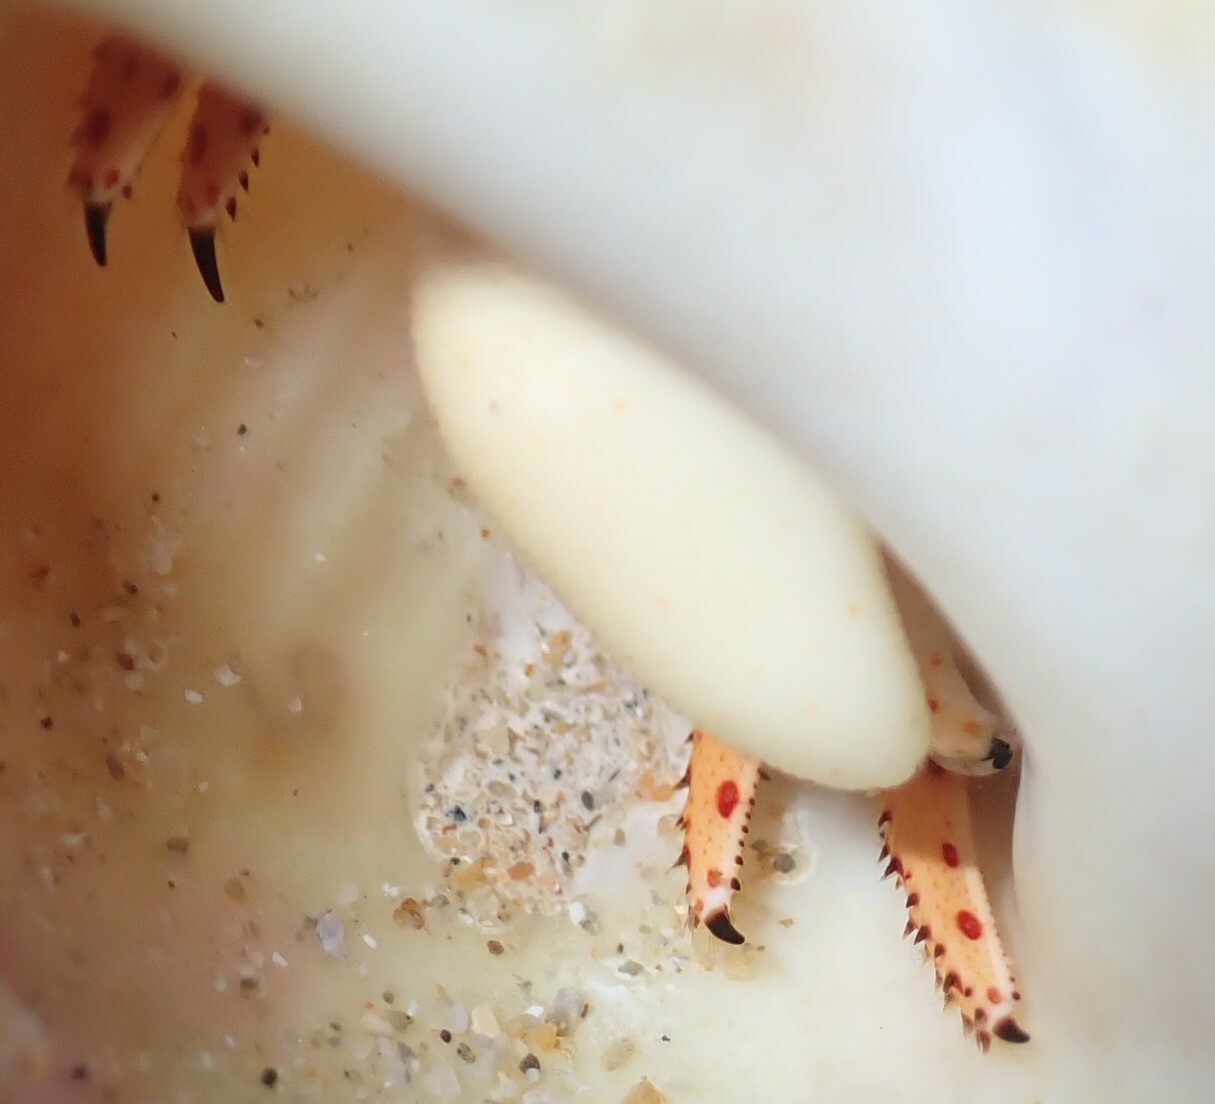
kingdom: Animalia
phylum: Arthropoda
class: Malacostraca
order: Decapoda
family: Diogenidae
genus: Paguristes
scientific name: Paguristes frontalis
